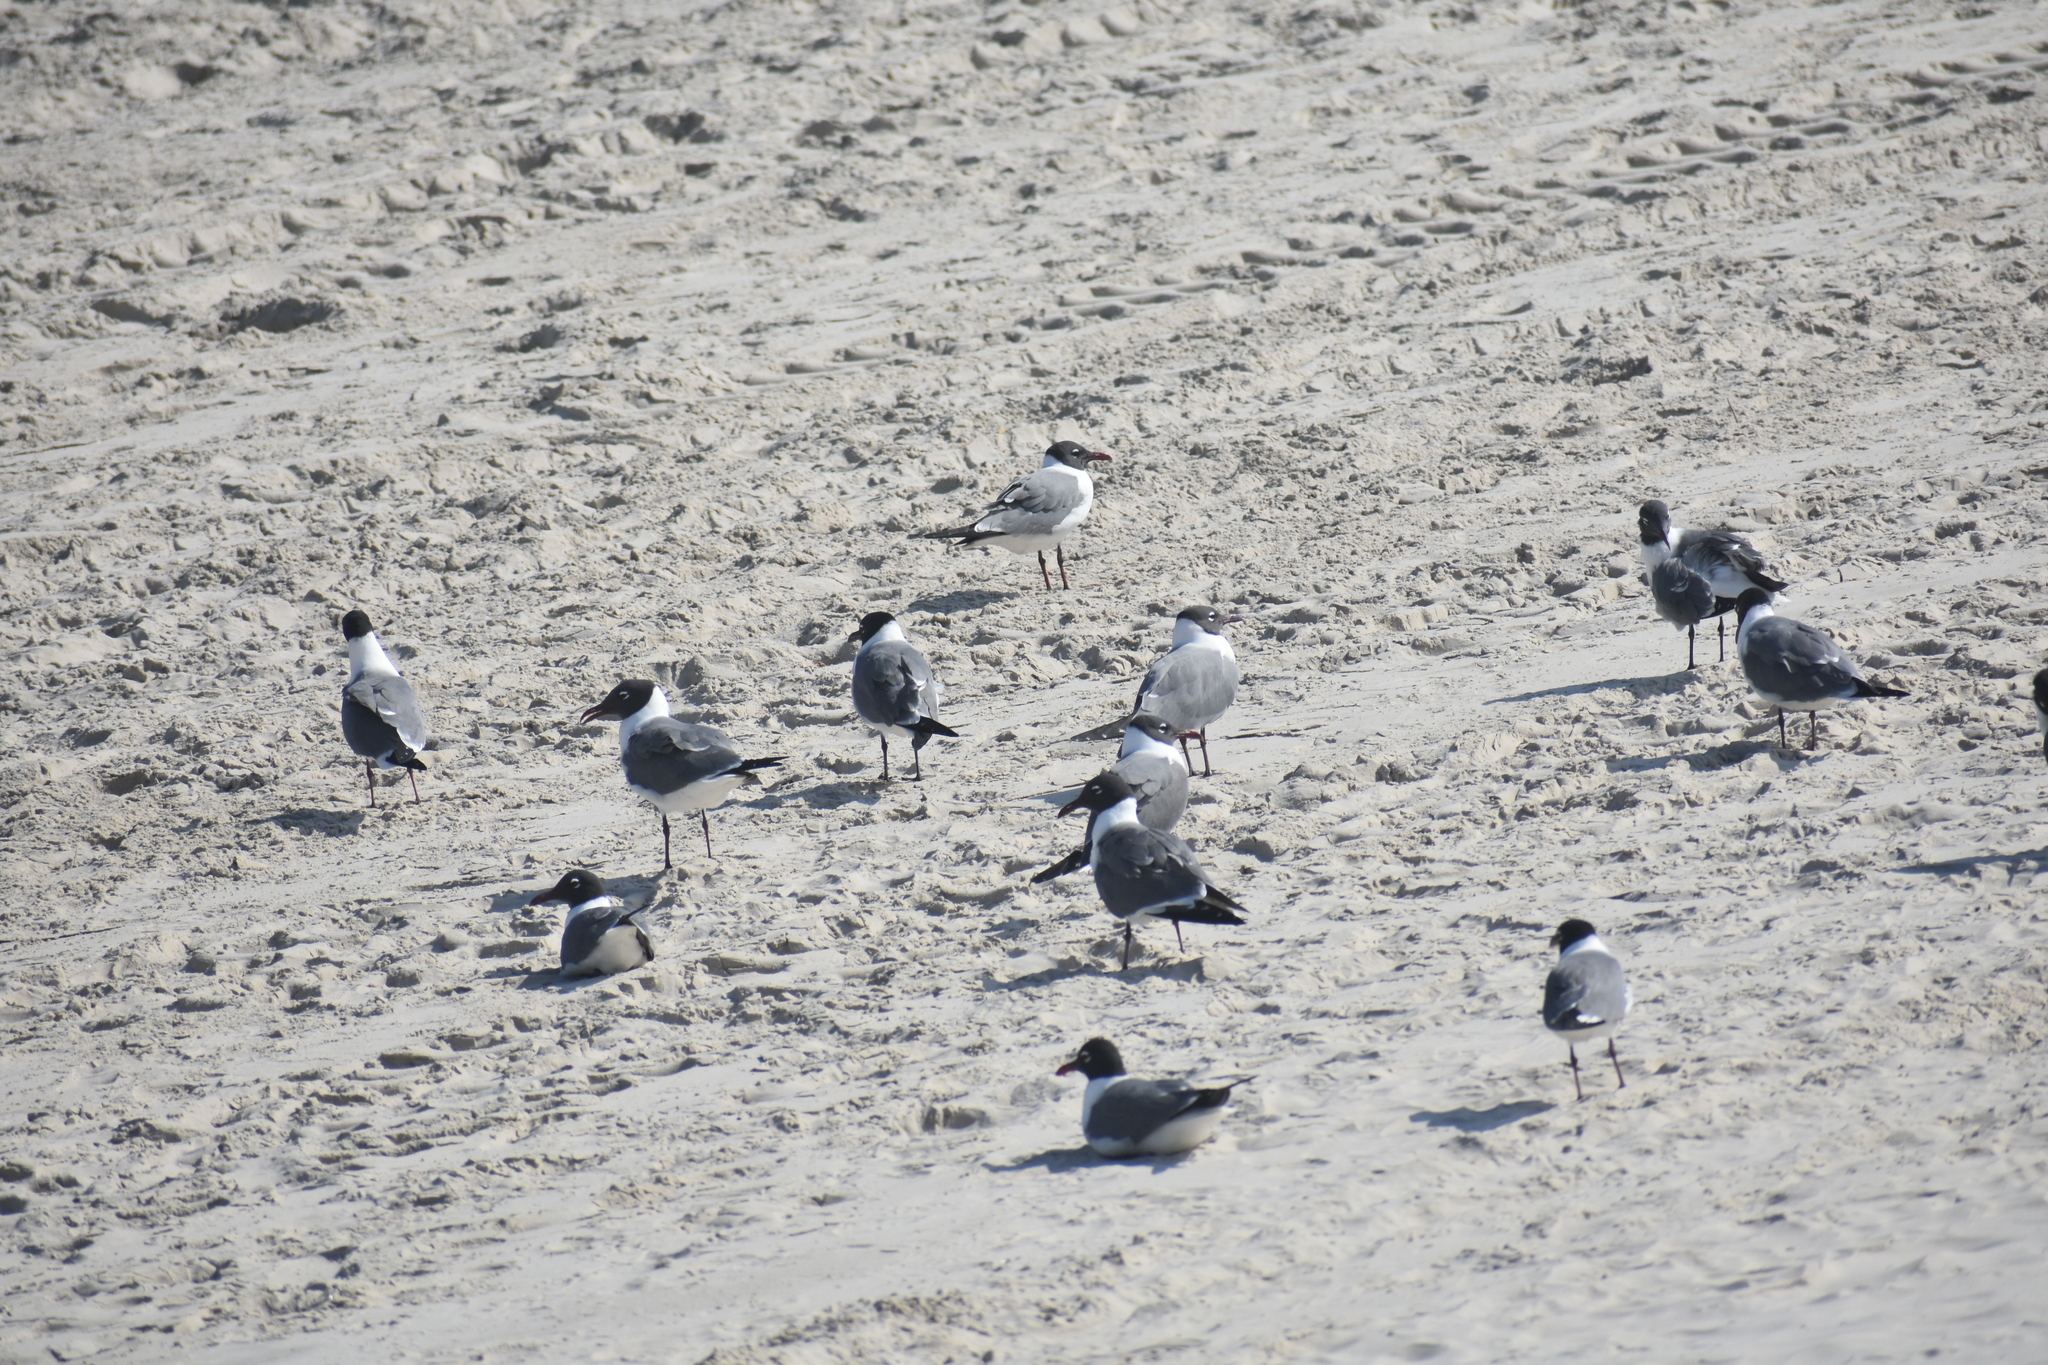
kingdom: Animalia
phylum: Chordata
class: Aves
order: Charadriiformes
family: Laridae
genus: Leucophaeus
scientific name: Leucophaeus atricilla
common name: Laughing gull
